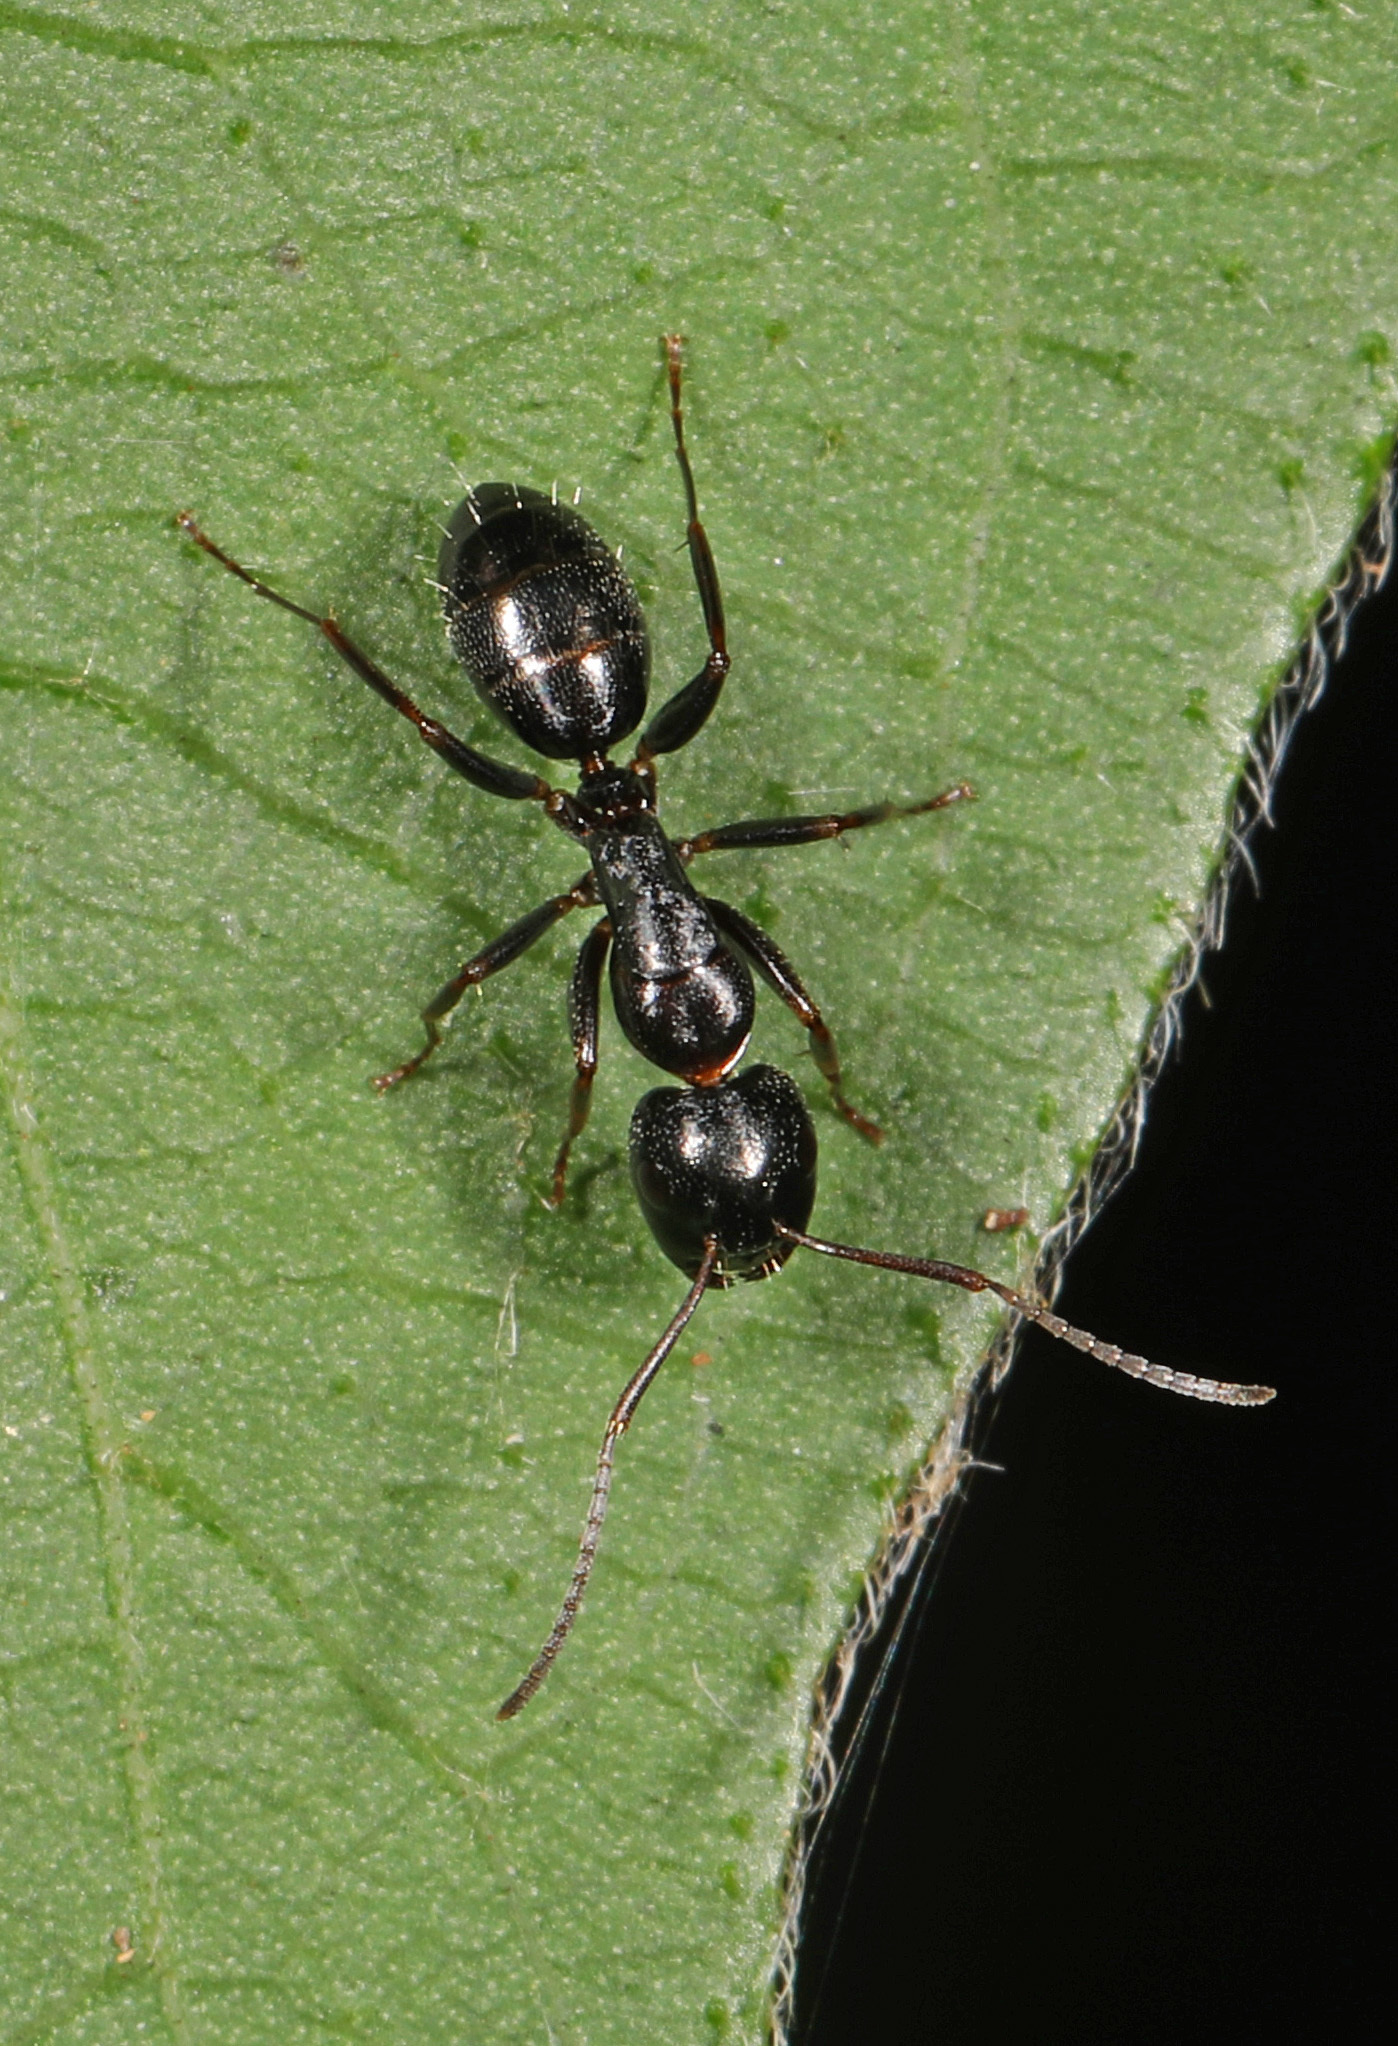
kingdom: Animalia
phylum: Arthropoda
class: Insecta
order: Hymenoptera
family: Formicidae
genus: Camponotus
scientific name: Camponotus nearcticus
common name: Smaller carpenter ant
